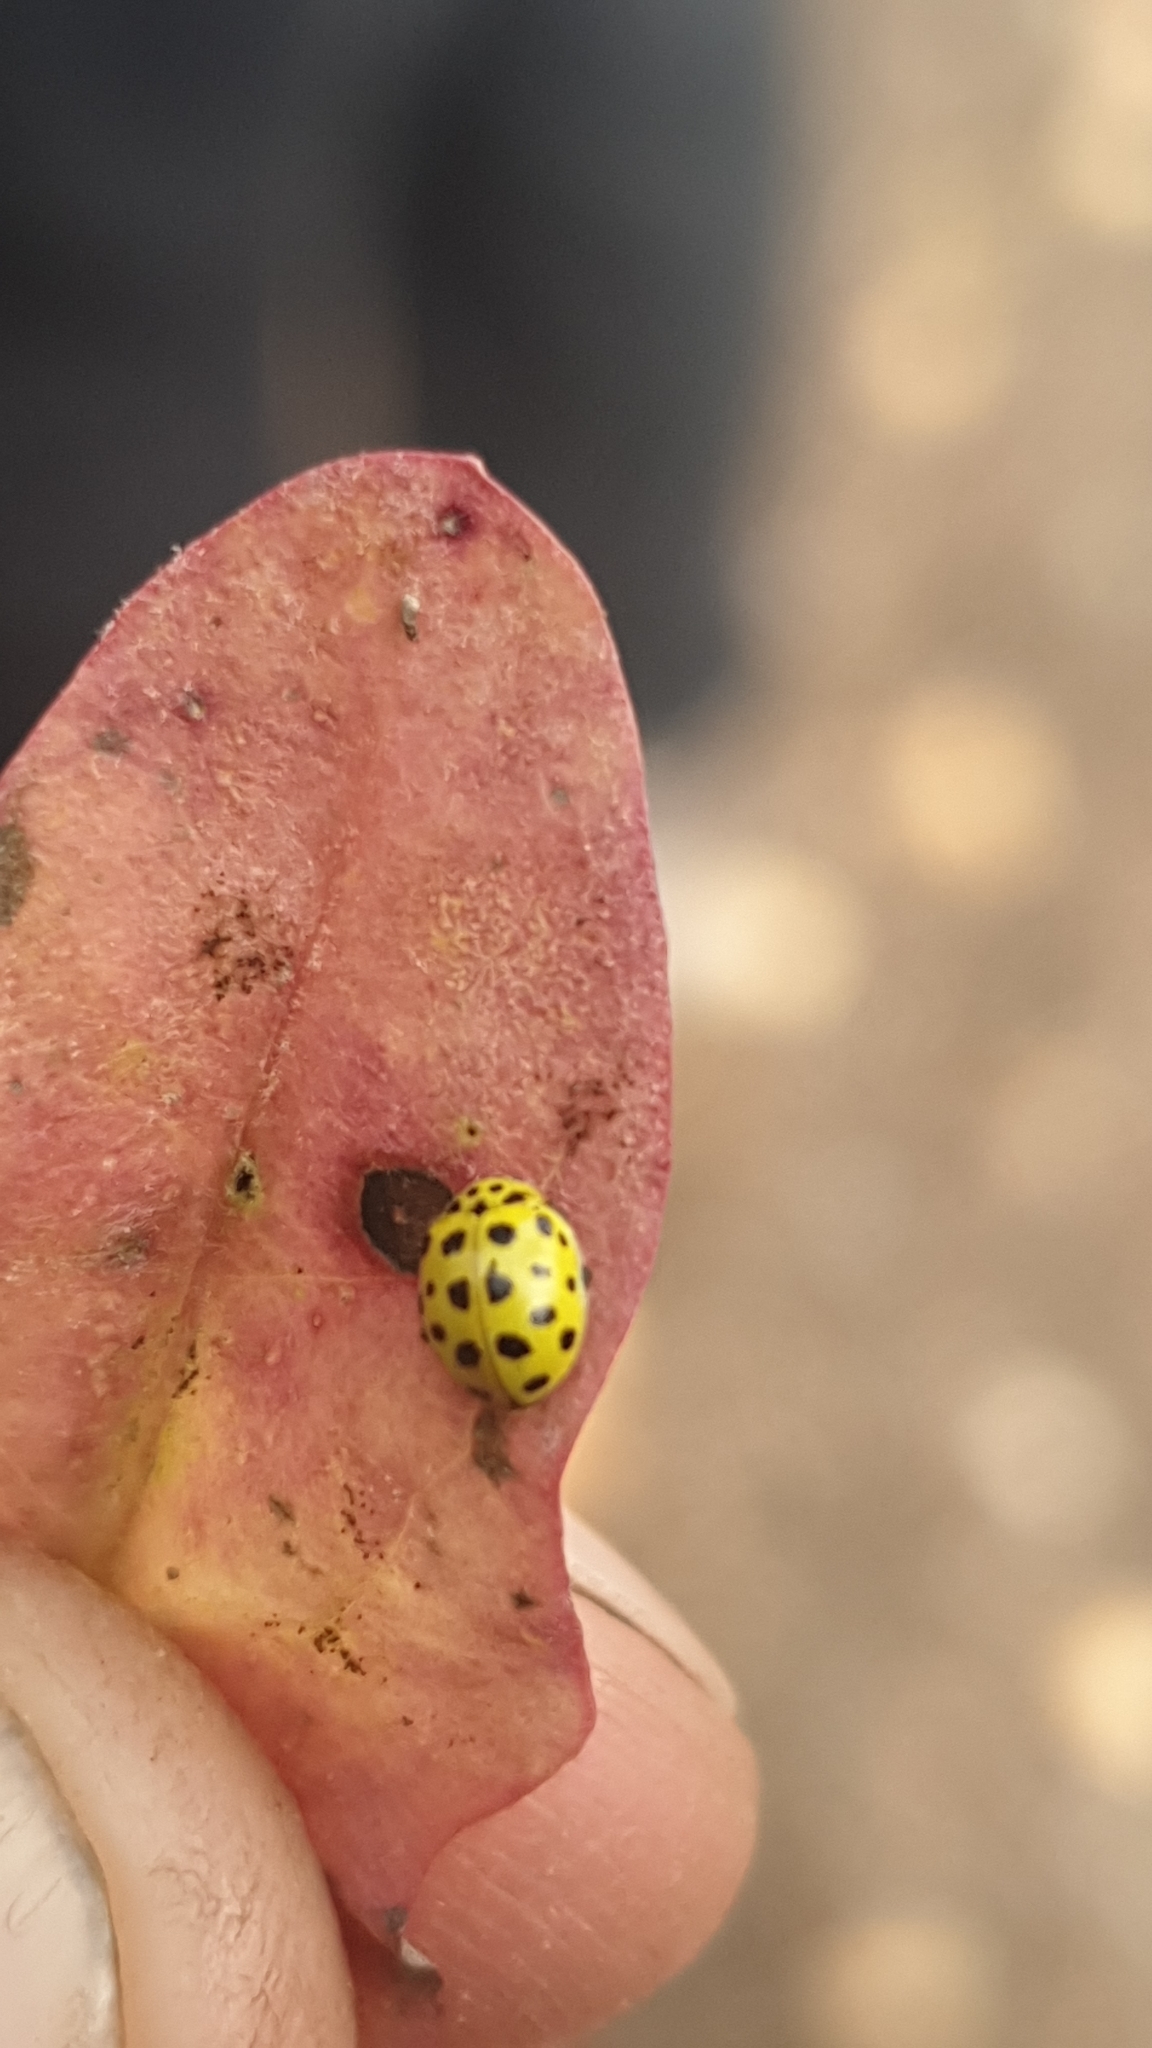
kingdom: Animalia
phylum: Arthropoda
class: Insecta
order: Coleoptera
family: Coccinellidae
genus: Psyllobora
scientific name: Psyllobora vigintiduopunctata
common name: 22-spot ladybird
